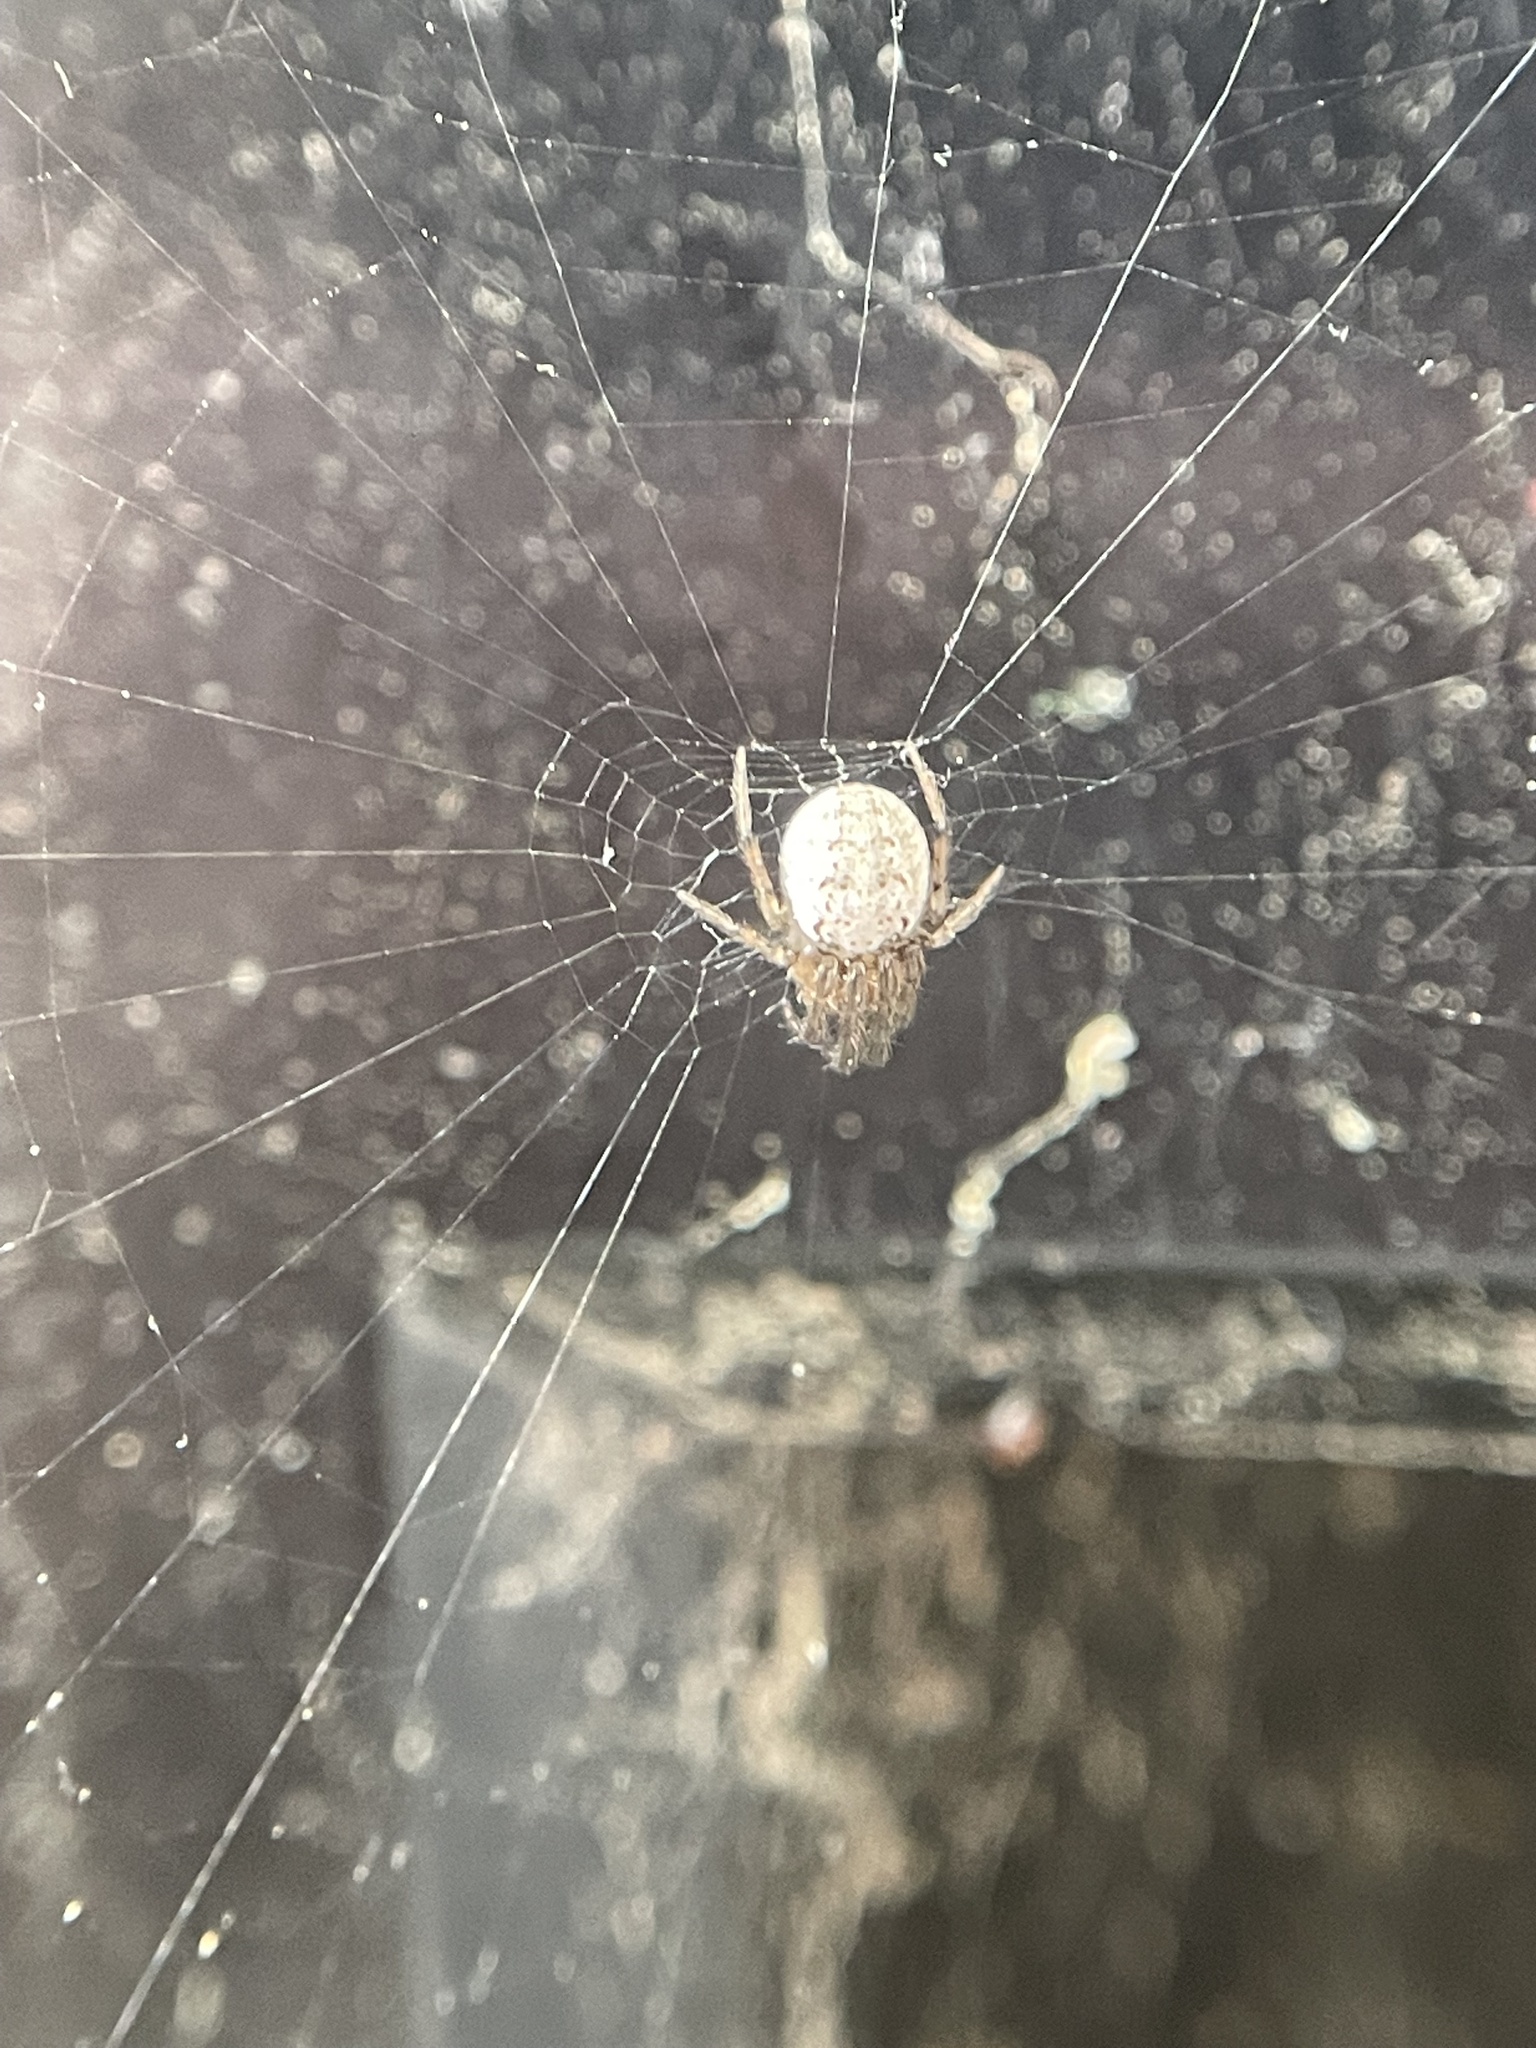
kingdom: Animalia
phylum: Arthropoda
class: Arachnida
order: Araneae
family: Araneidae
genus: Metazygia
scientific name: Metazygia zilloides
